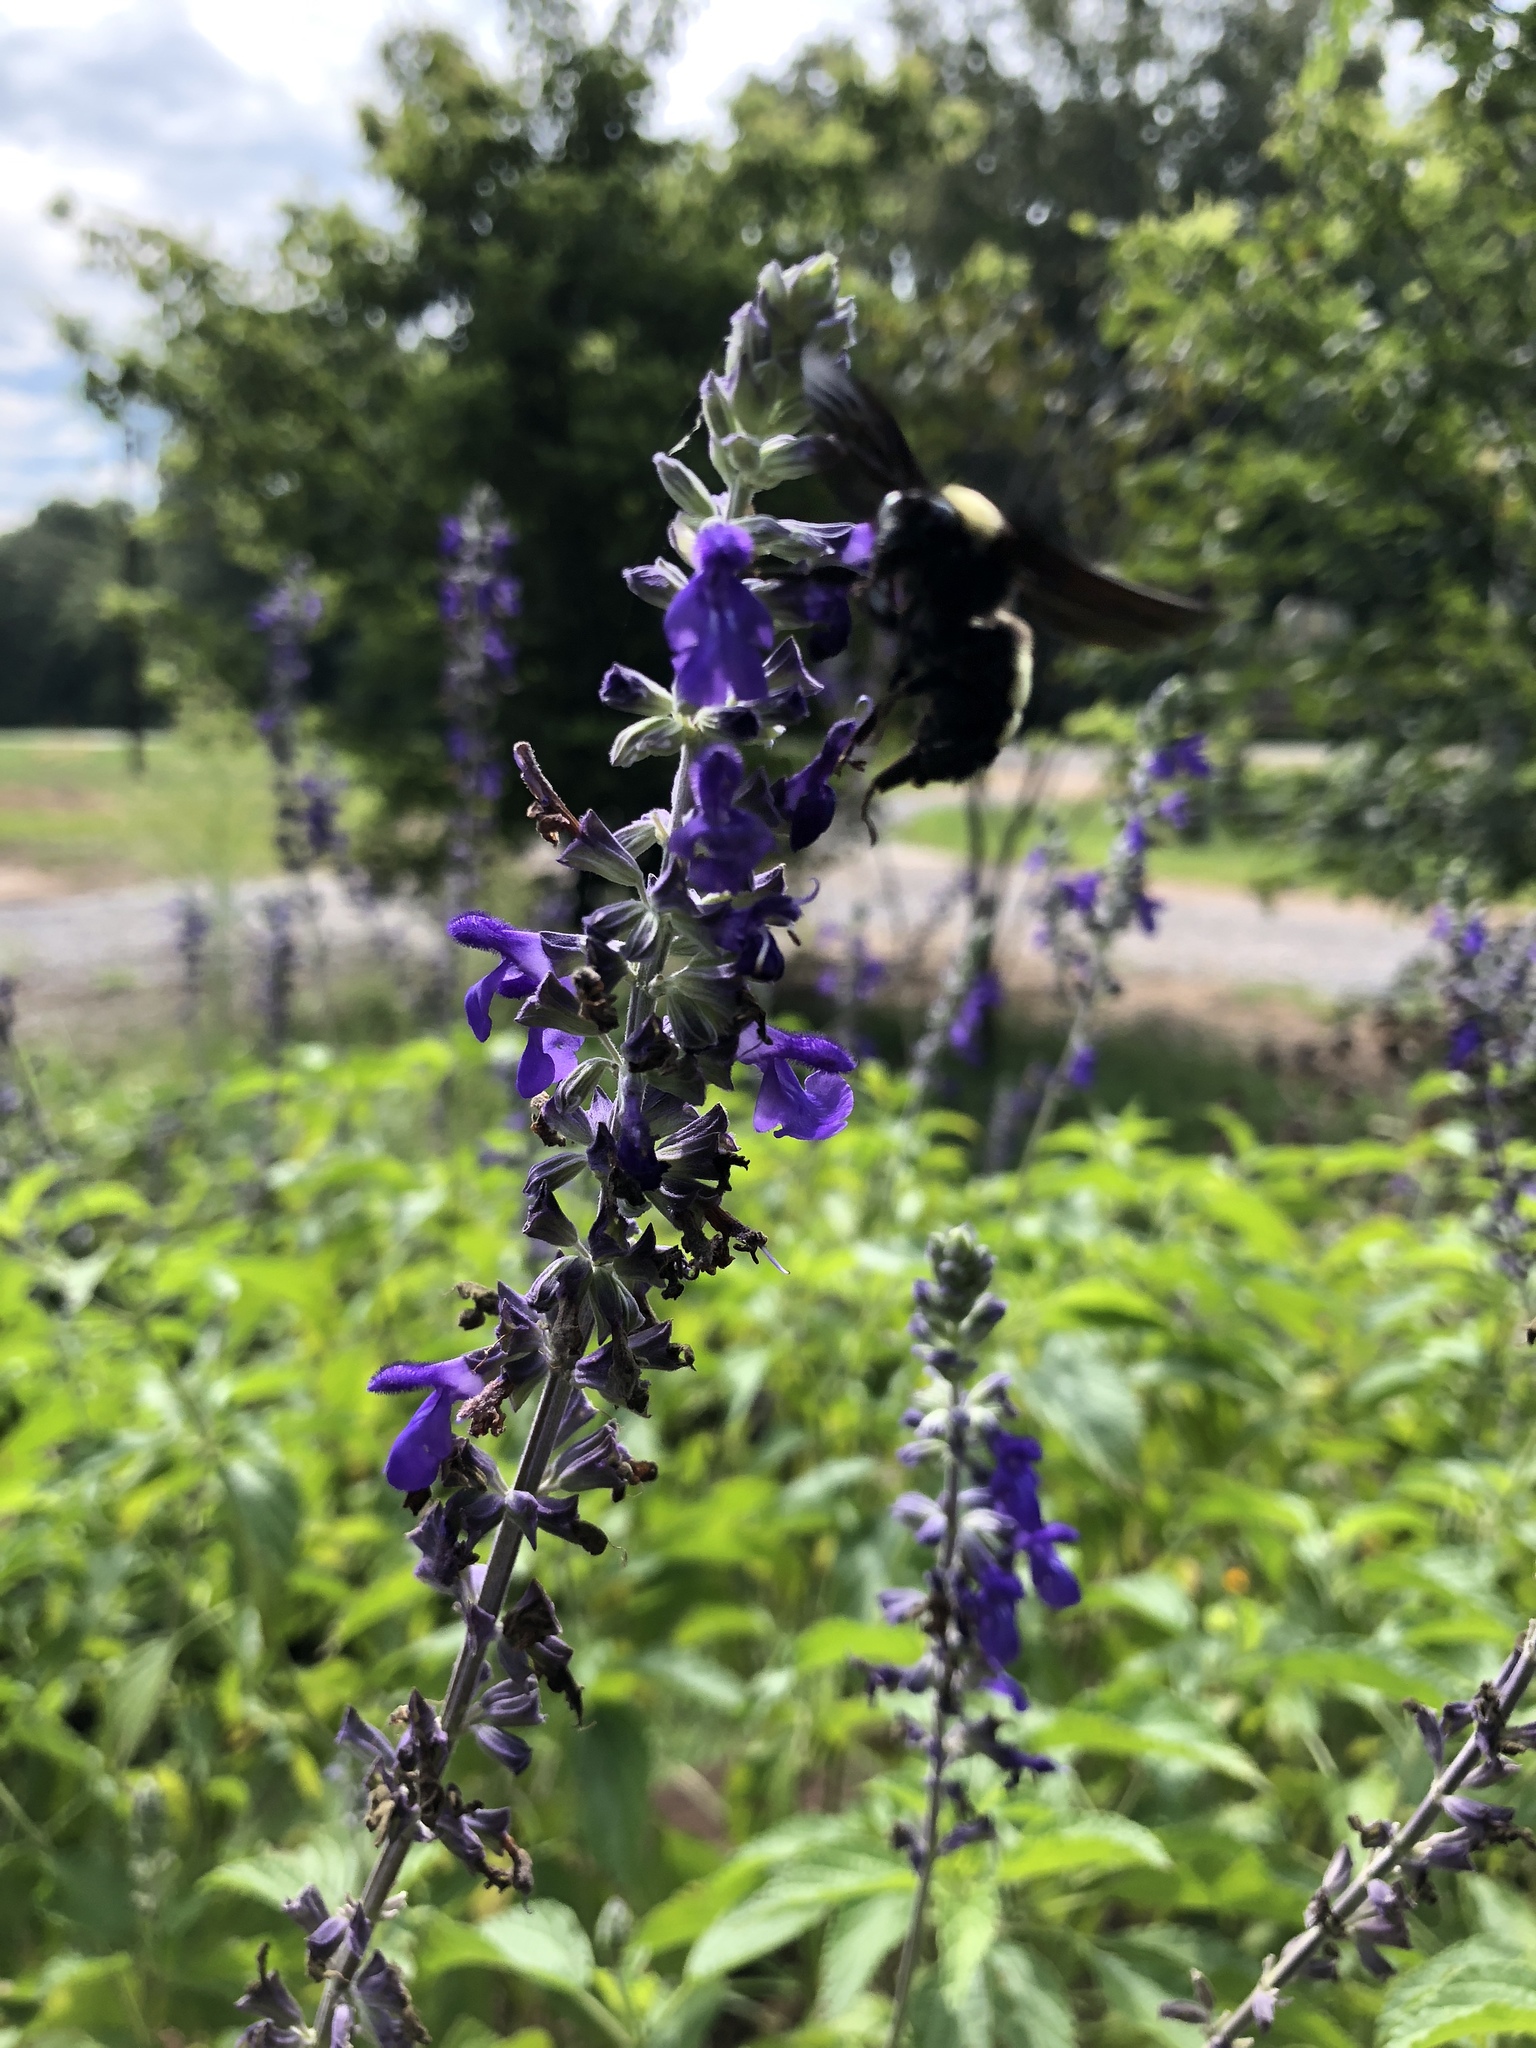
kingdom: Animalia
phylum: Arthropoda
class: Insecta
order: Hymenoptera
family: Apidae
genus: Bombus
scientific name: Bombus pensylvanicus
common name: Bumble bee
